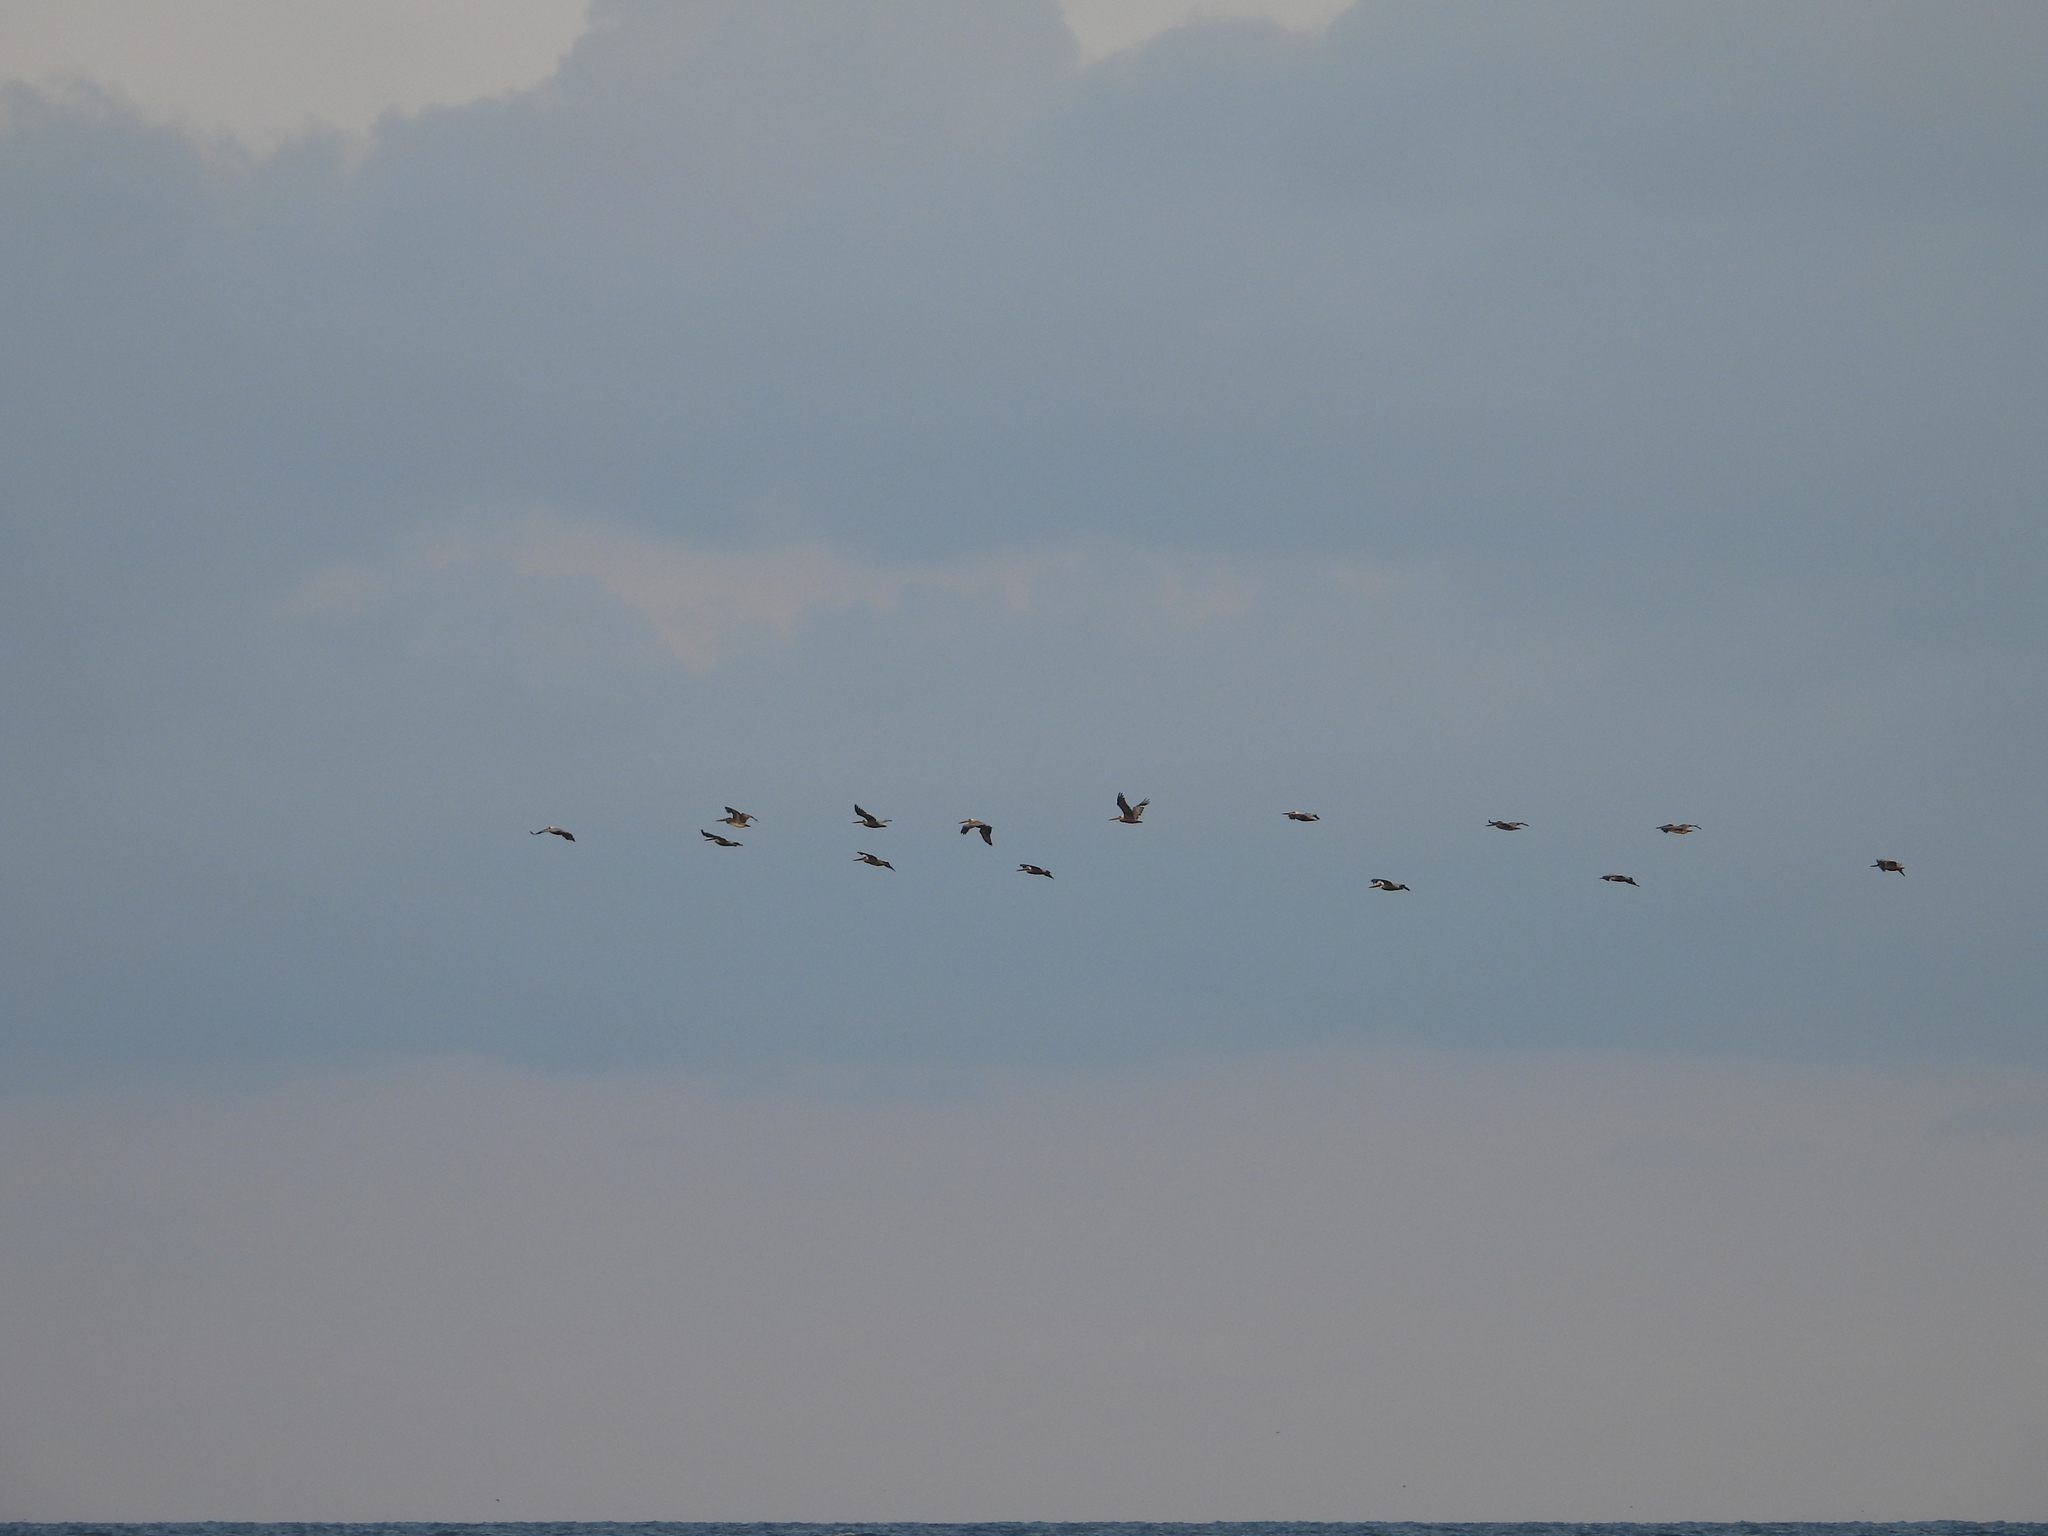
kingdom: Animalia
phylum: Chordata
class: Aves
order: Pelecaniformes
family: Pelecanidae
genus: Pelecanus
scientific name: Pelecanus occidentalis
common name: Brown pelican
